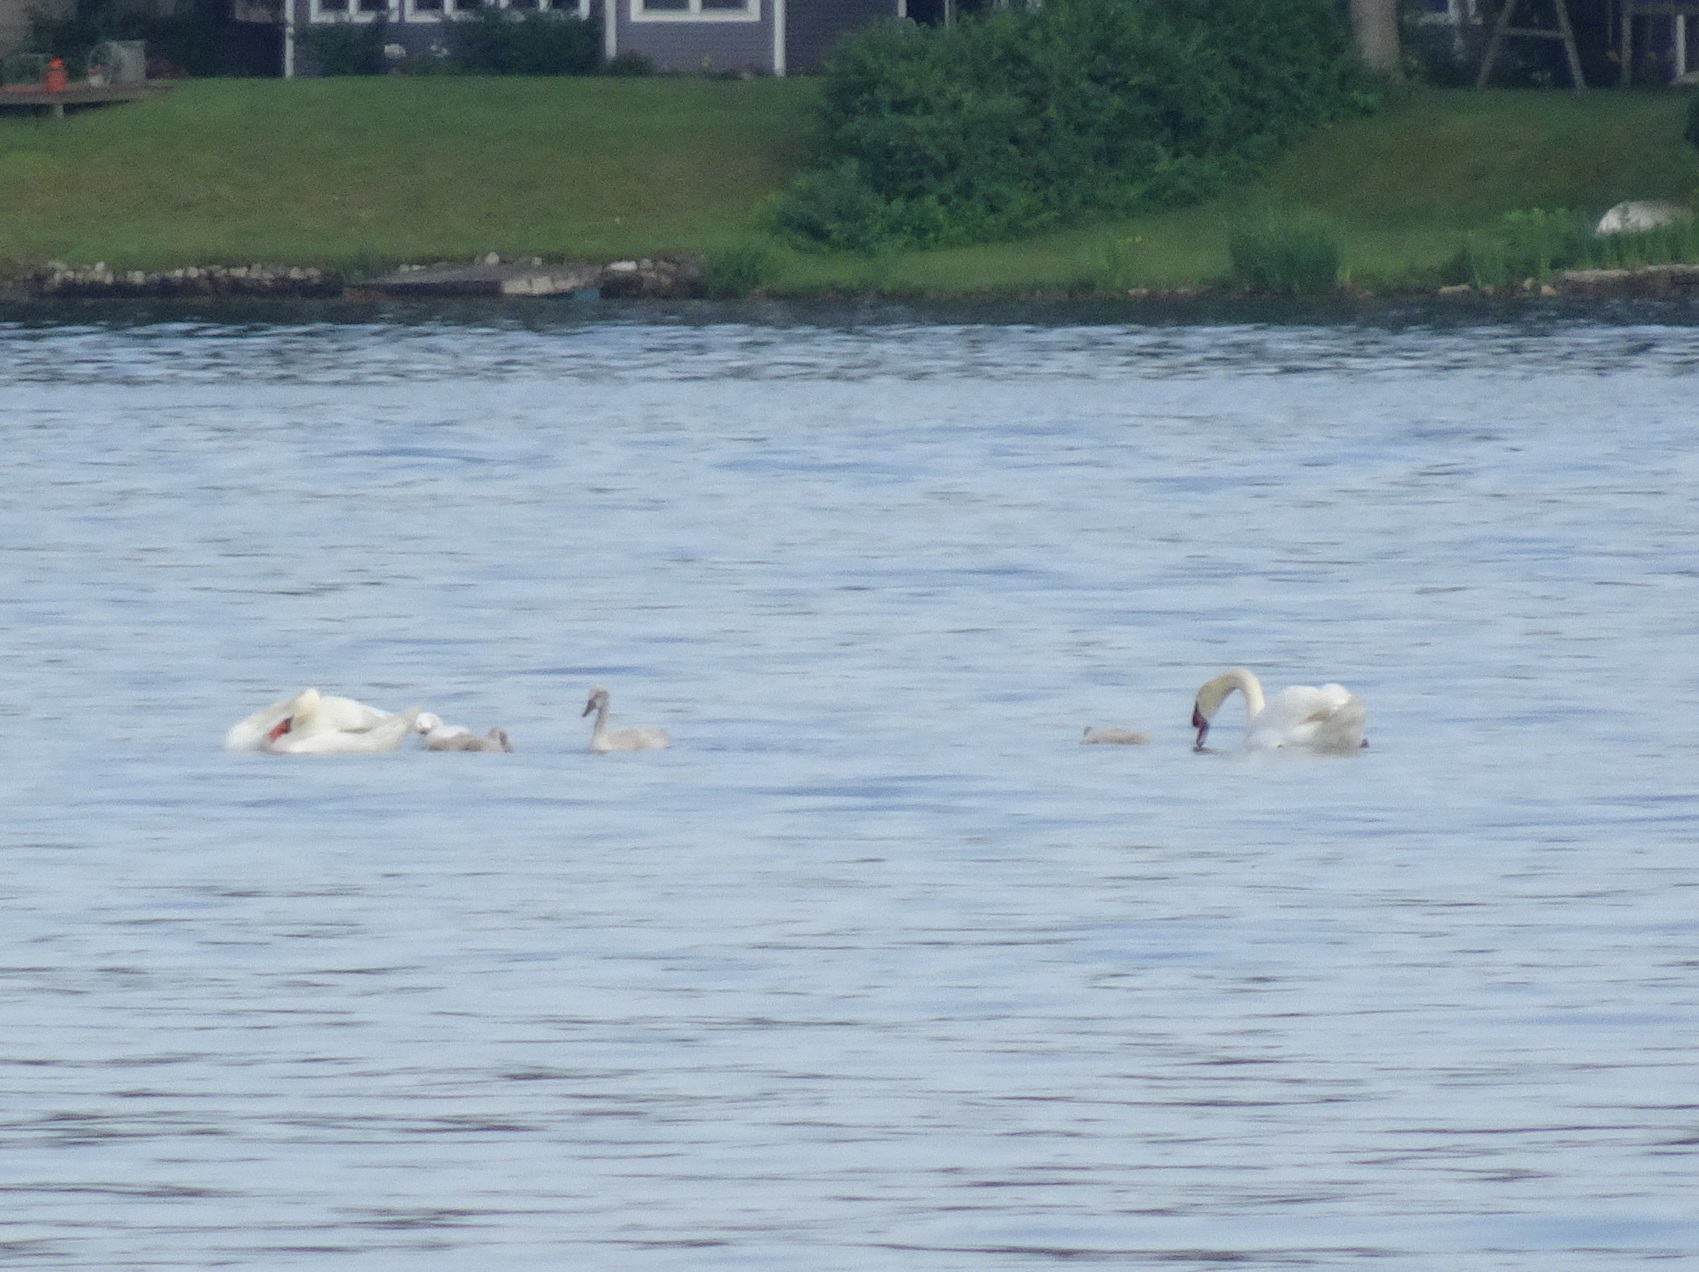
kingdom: Animalia
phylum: Chordata
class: Aves
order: Anseriformes
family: Anatidae
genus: Cygnus
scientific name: Cygnus olor
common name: Mute swan
